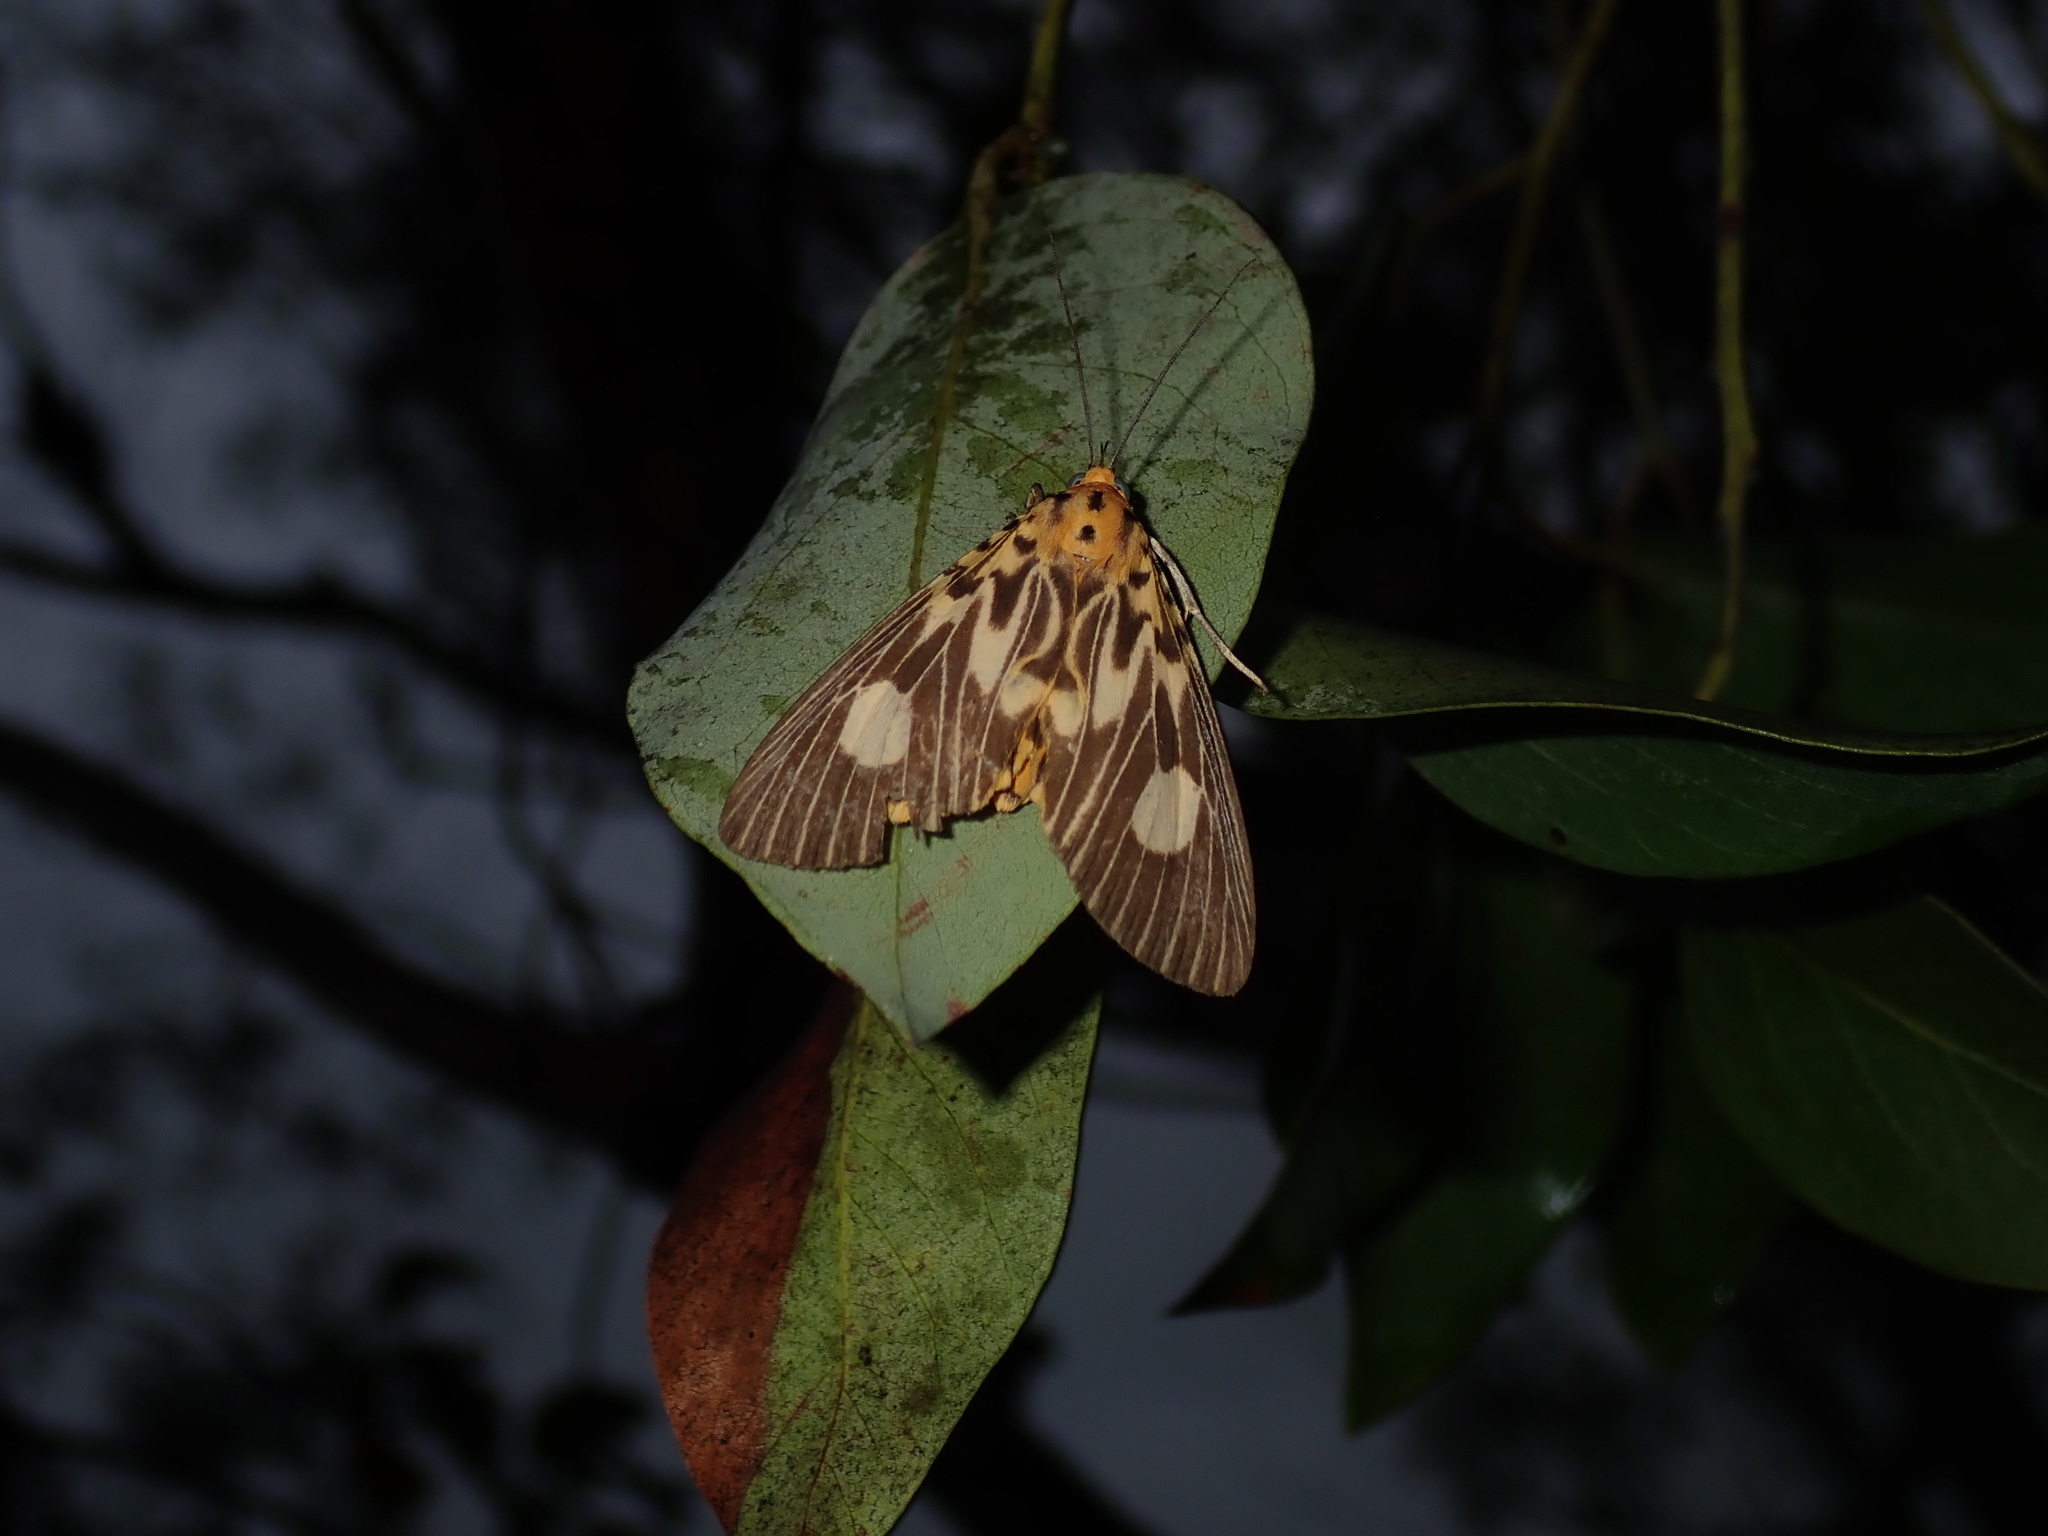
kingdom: Animalia
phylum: Arthropoda
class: Insecta
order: Lepidoptera
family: Erebidae
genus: Asota
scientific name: Asota plagiata
